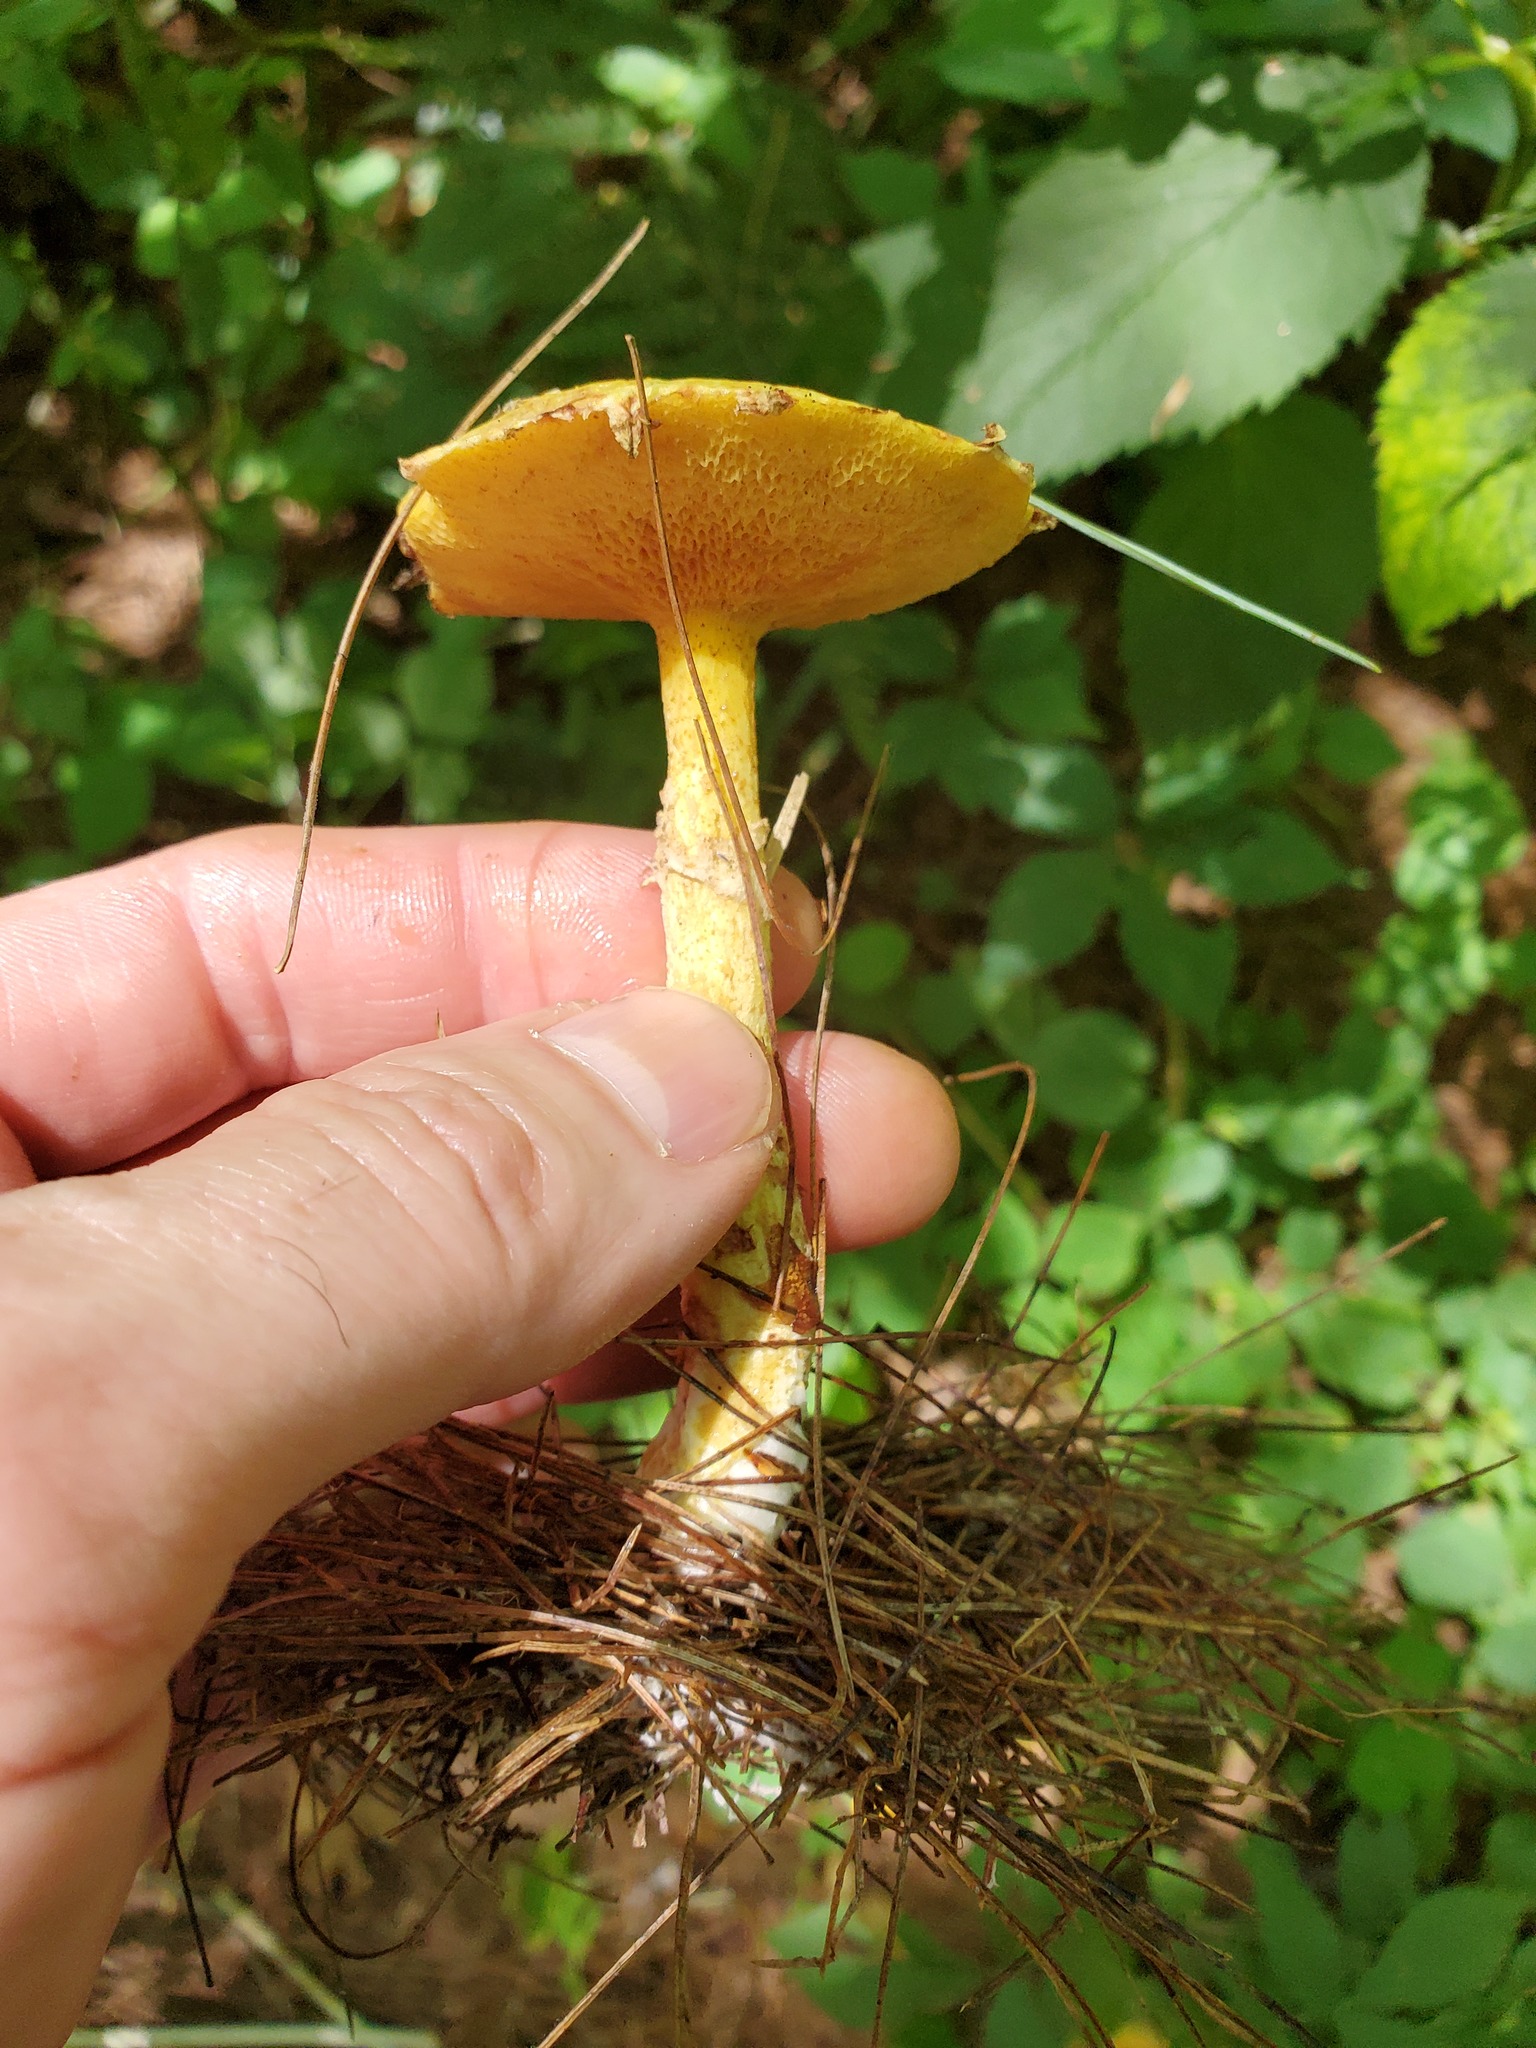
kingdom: Fungi
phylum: Basidiomycota
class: Agaricomycetes
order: Boletales
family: Suillaceae
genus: Suillus
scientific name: Suillus americanus
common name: Chicken fat mushroom
